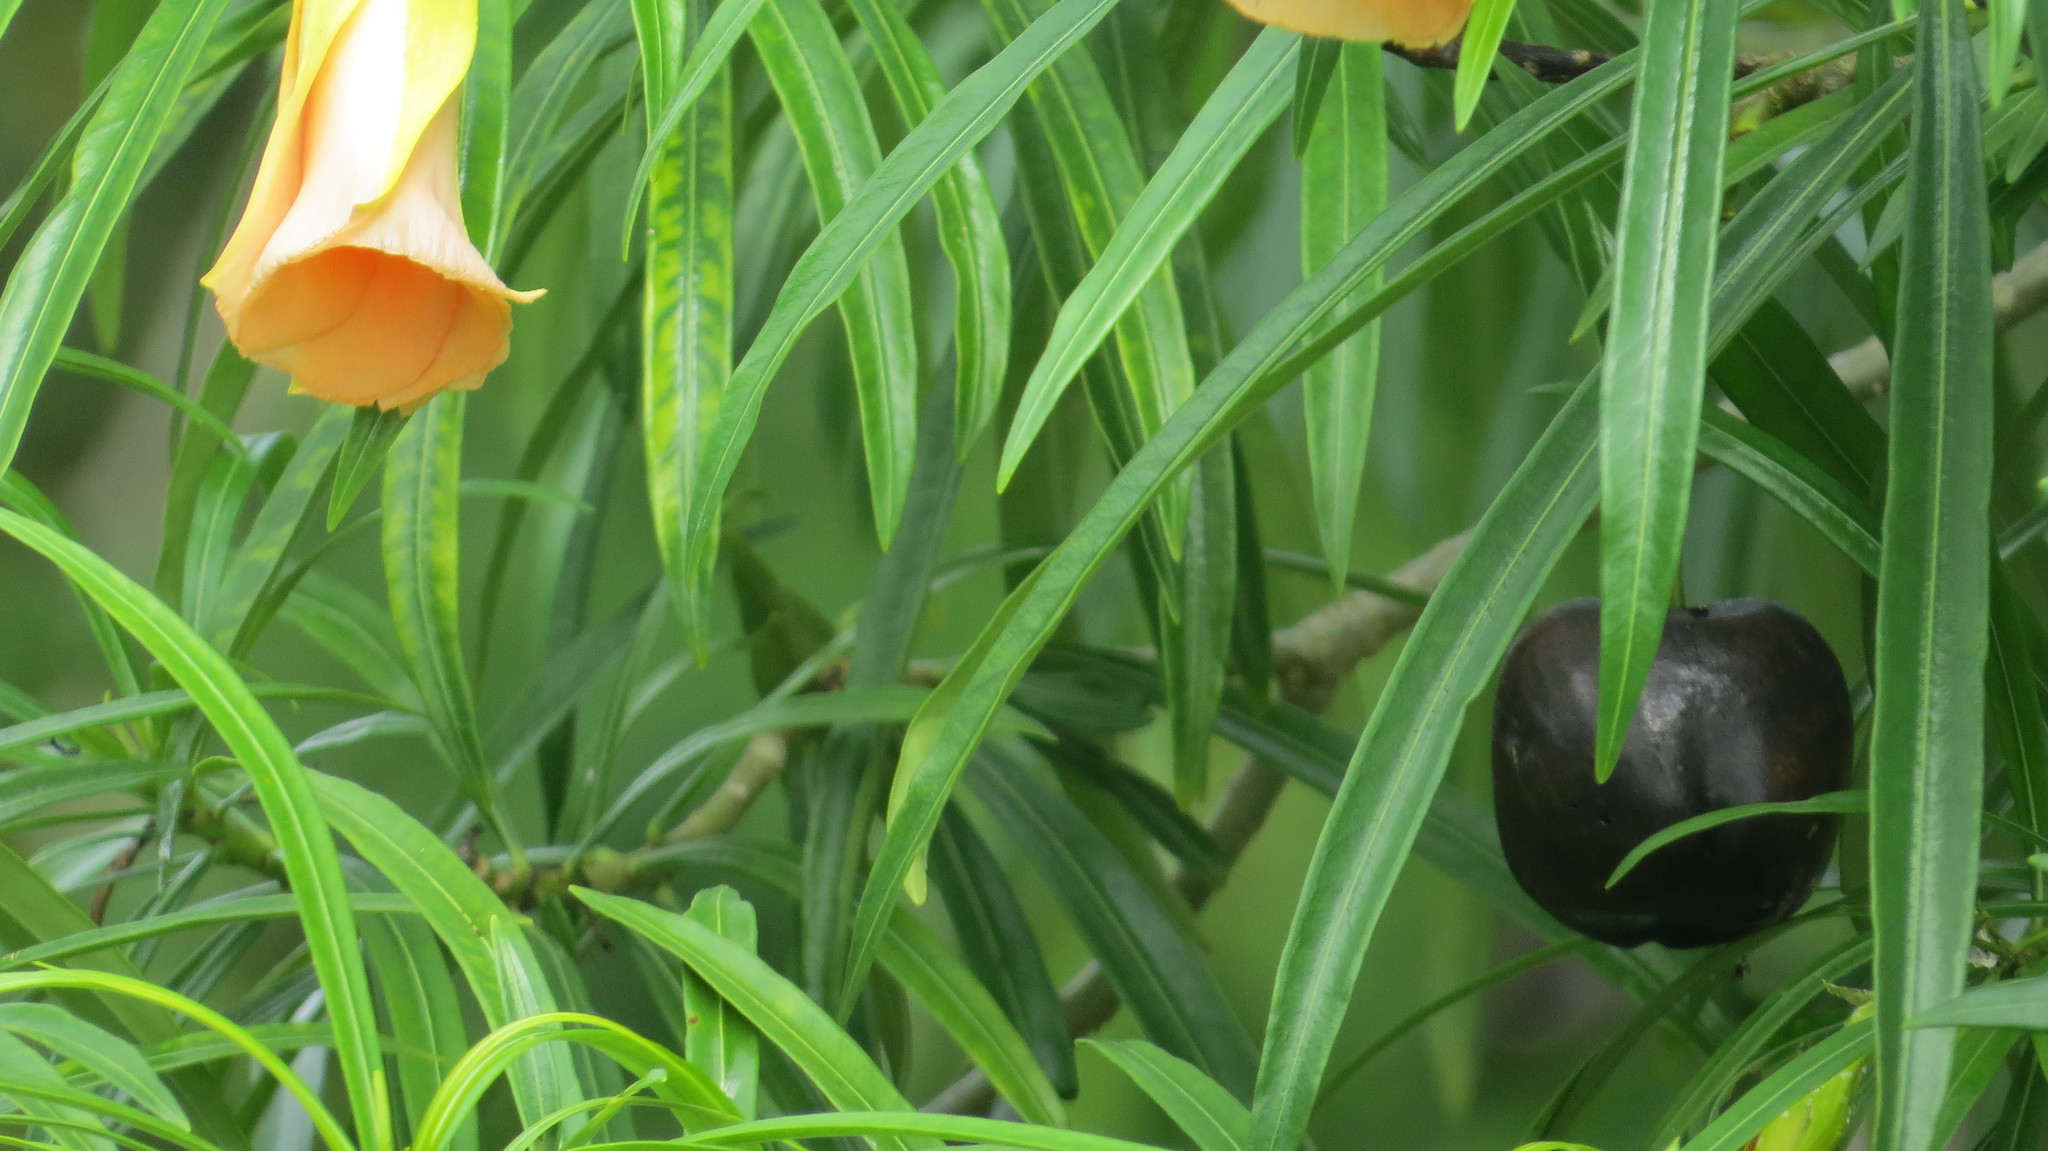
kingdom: Plantae
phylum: Tracheophyta
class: Magnoliopsida
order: Gentianales
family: Apocynaceae
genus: Cascabela
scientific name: Cascabela thevetia
